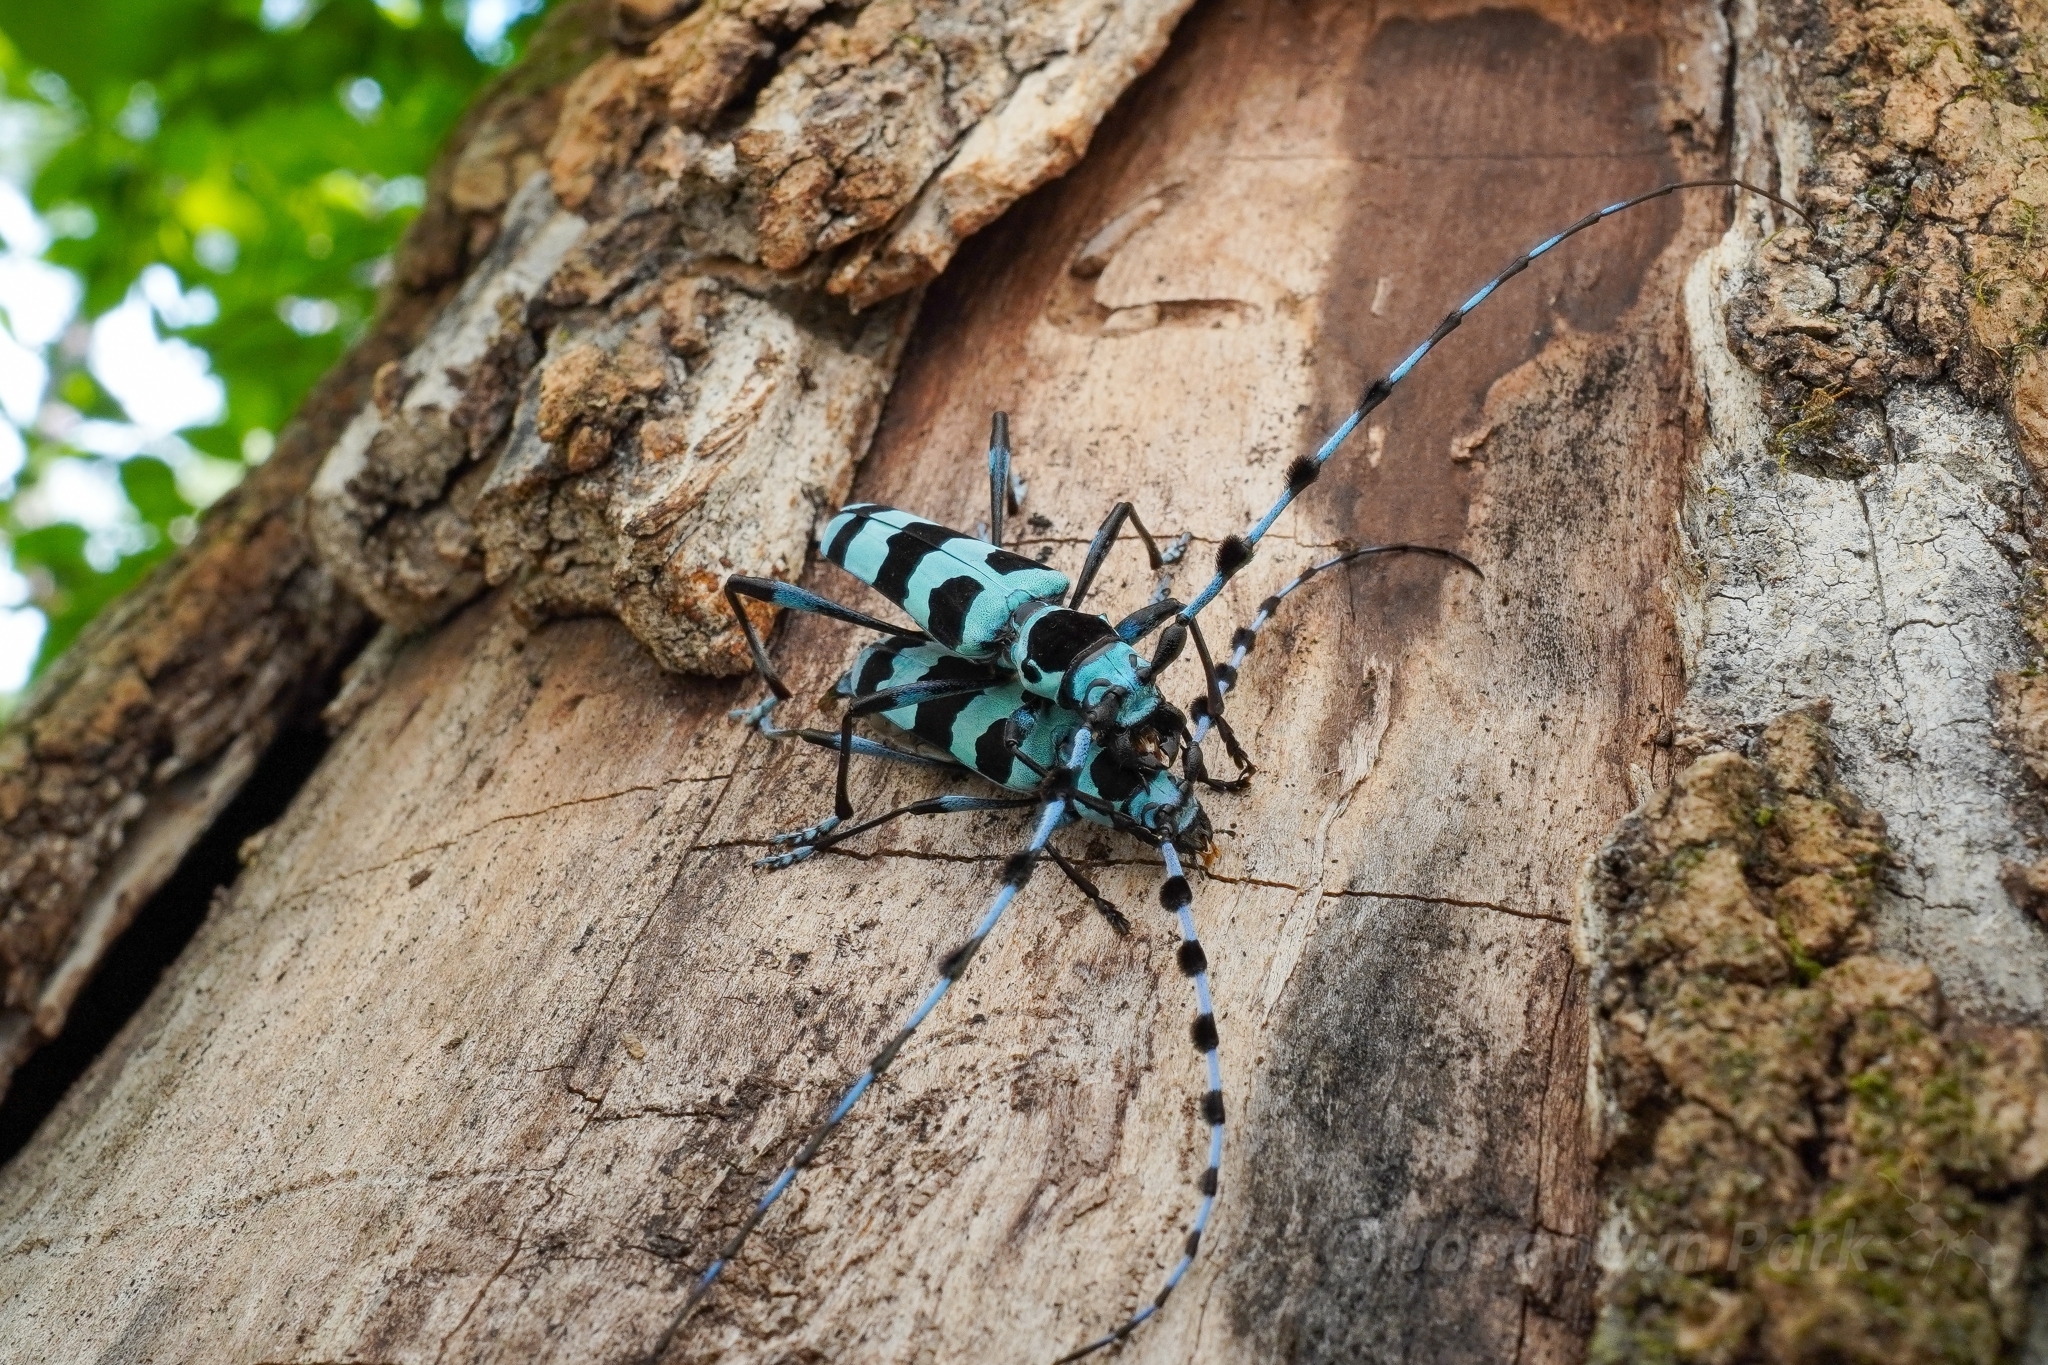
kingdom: Animalia
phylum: Arthropoda
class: Insecta
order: Coleoptera
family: Cerambycidae
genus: Rosalia
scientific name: Rosalia coelestis
